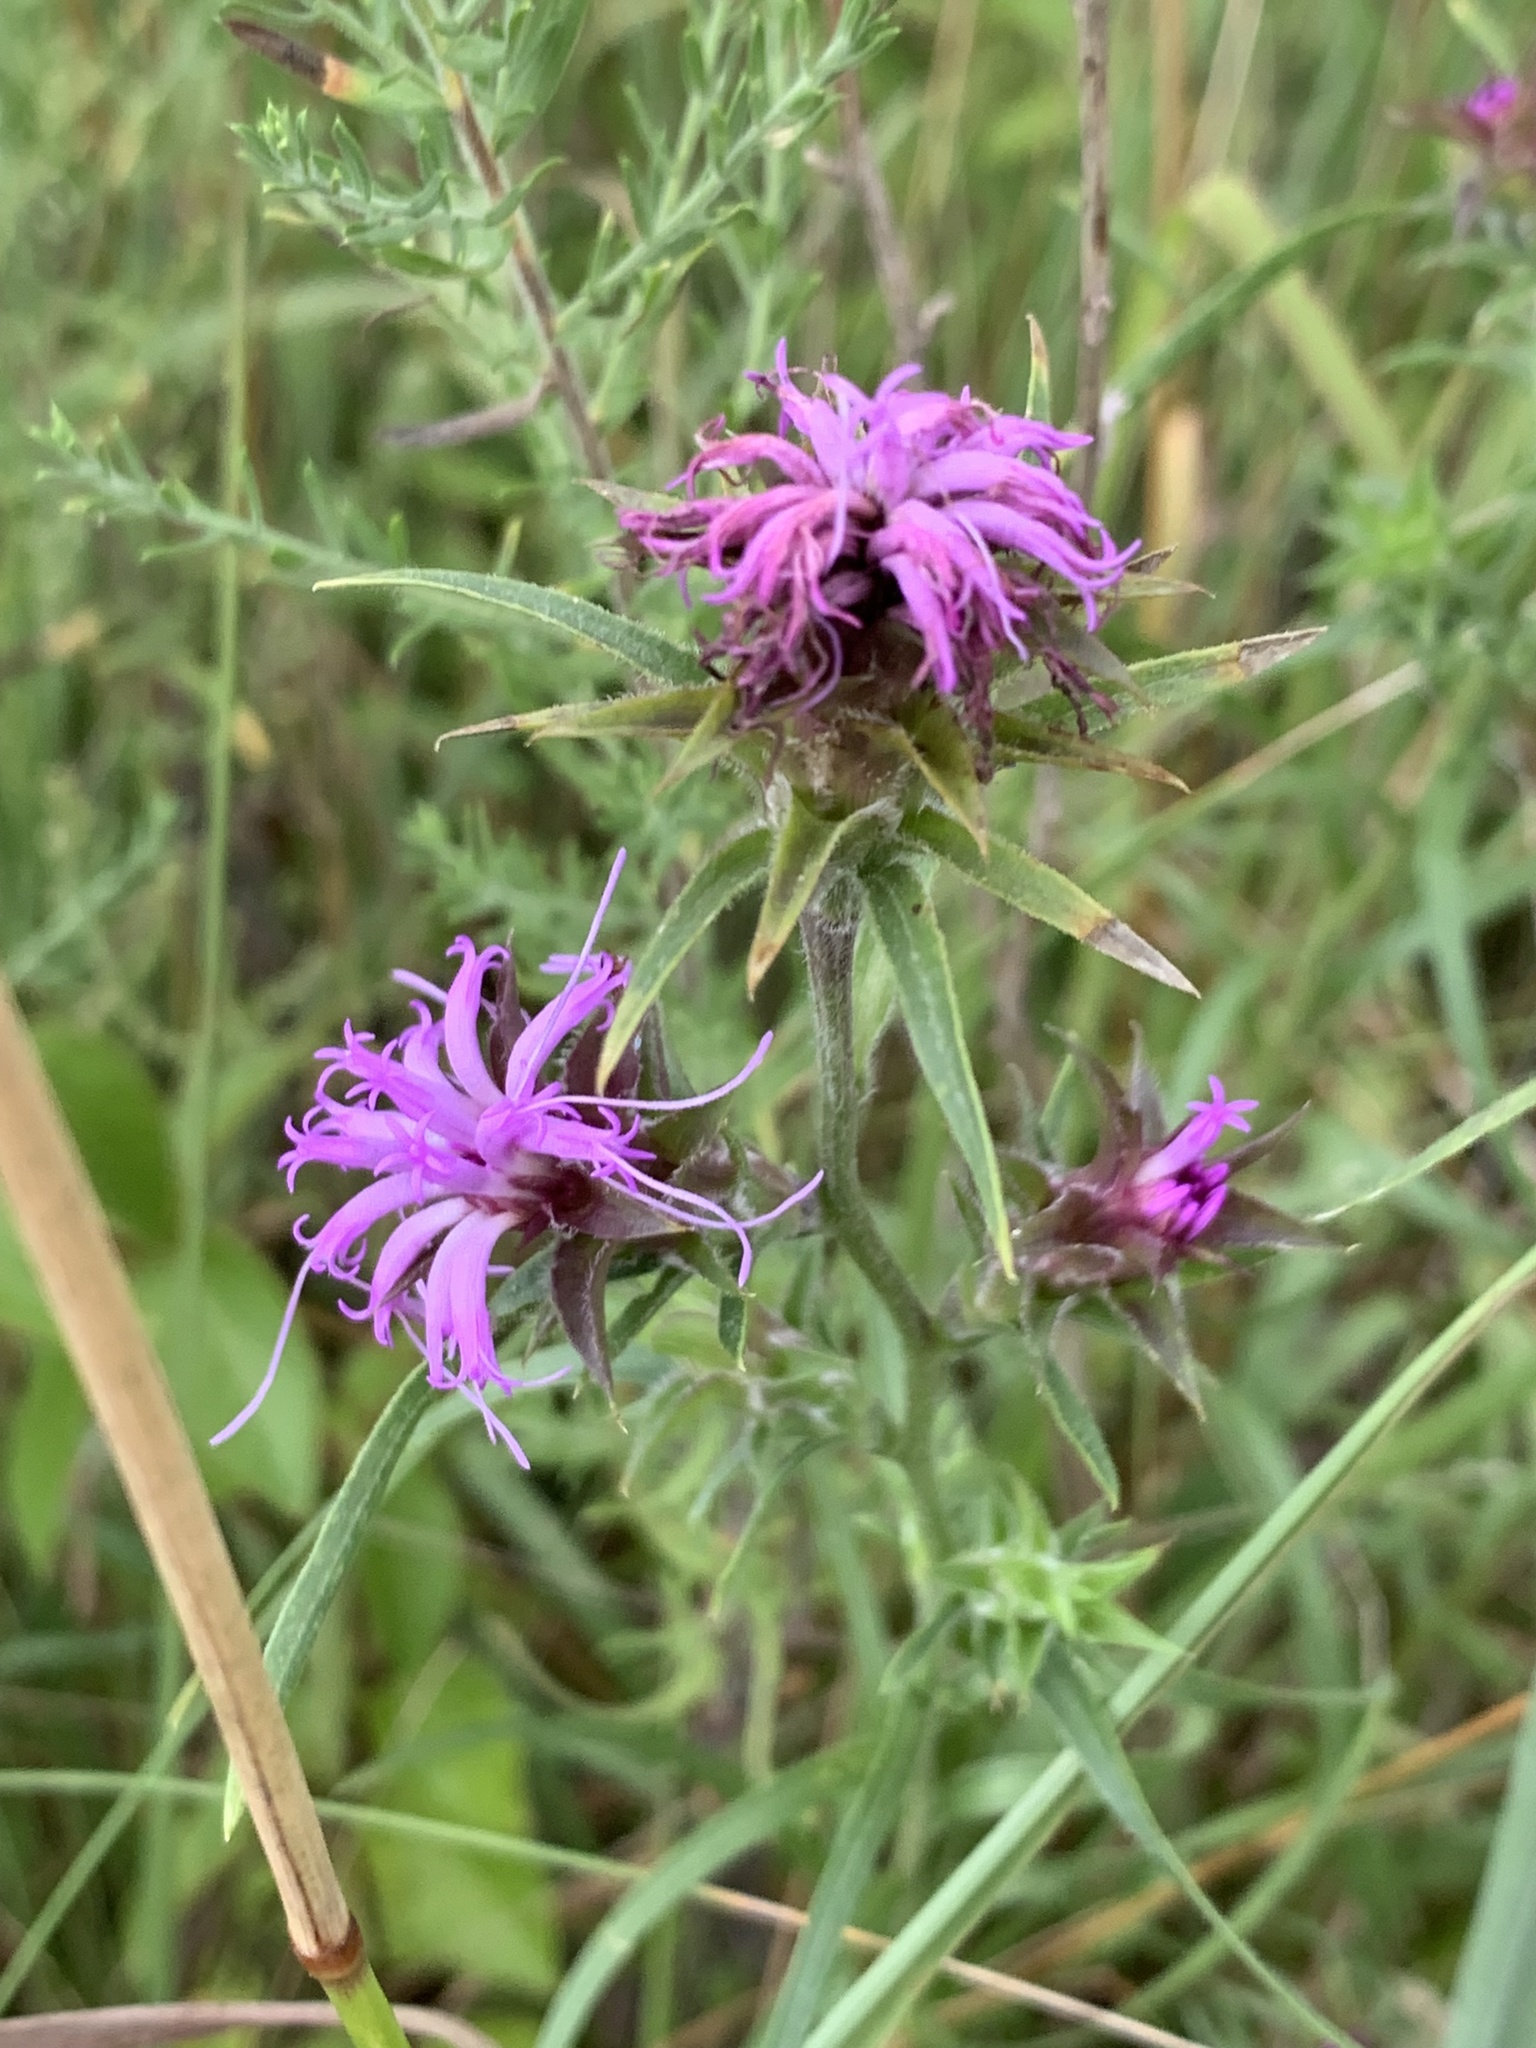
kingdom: Plantae
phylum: Tracheophyta
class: Magnoliopsida
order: Asterales
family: Asteraceae
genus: Liatris
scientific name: Liatris squarrosa
